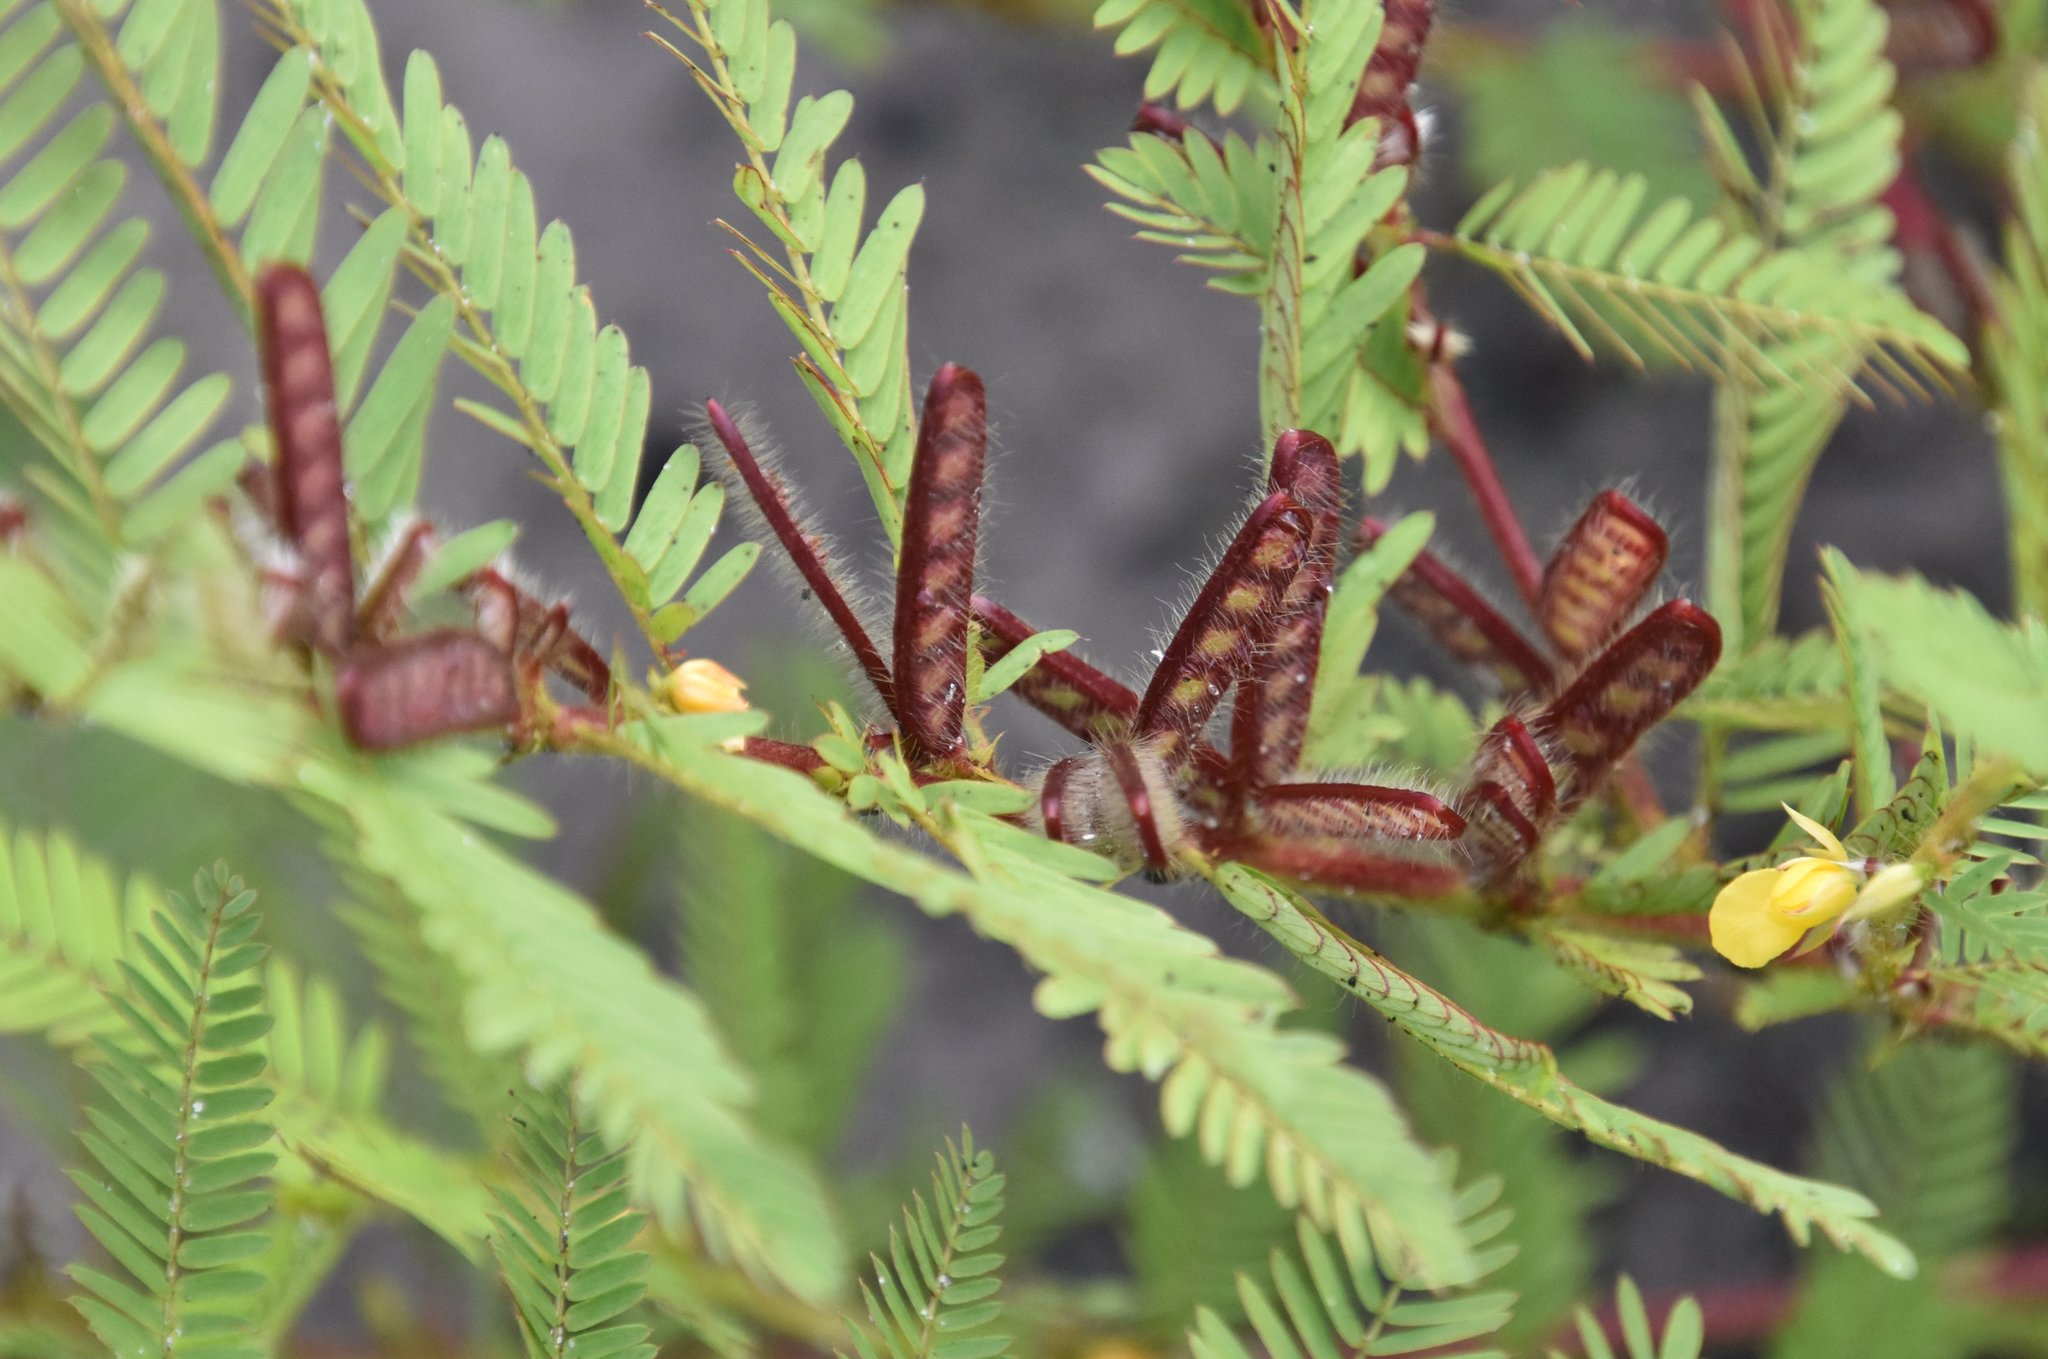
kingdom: Plantae
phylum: Tracheophyta
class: Magnoliopsida
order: Fabales
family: Fabaceae
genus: Chamaecrista
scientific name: Chamaecrista nictitans
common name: Sensitive cassia
